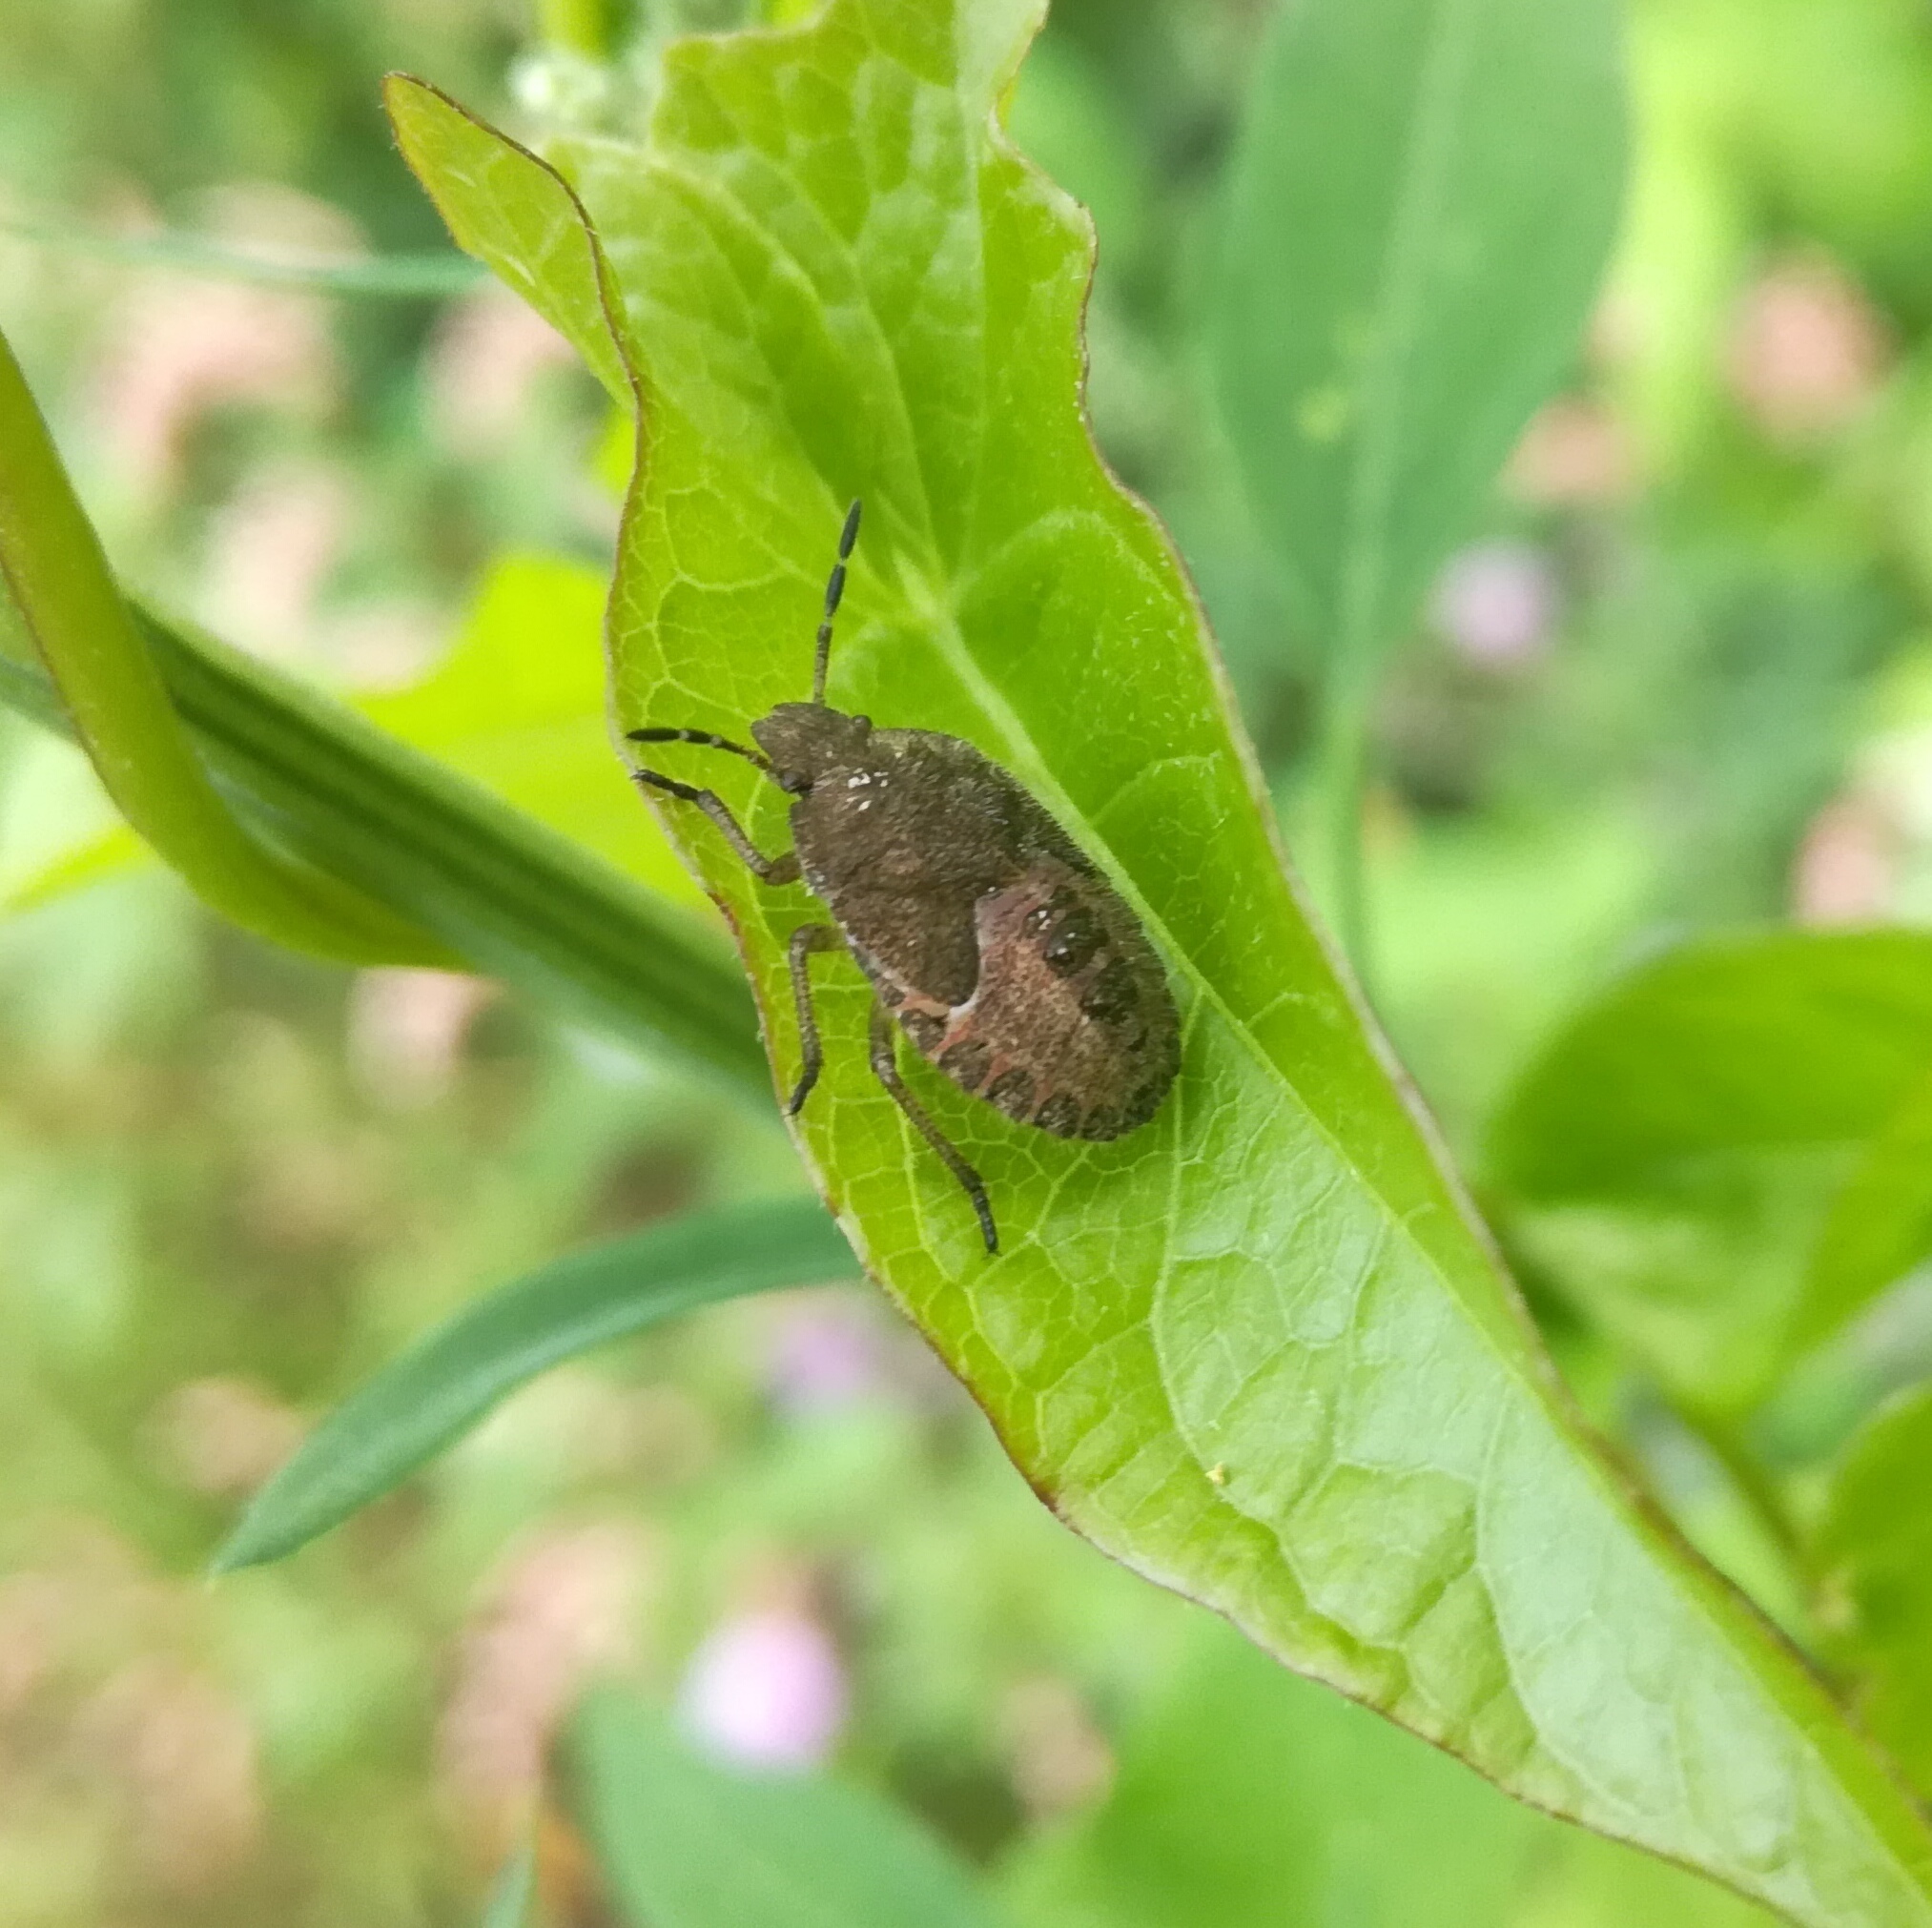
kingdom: Animalia
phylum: Arthropoda
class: Insecta
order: Hemiptera
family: Pentatomidae
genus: Dolycoris
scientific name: Dolycoris baccarum
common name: Sloe bug
